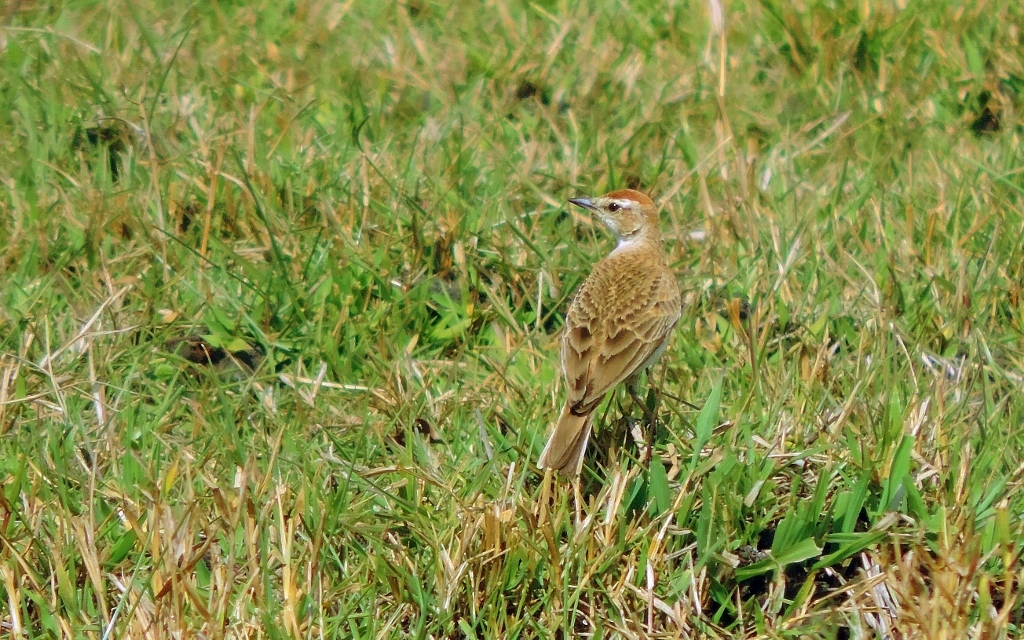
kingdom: Animalia
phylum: Chordata
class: Aves
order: Passeriformes
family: Alaudidae
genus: Calandrella
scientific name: Calandrella cinerea
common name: Red-capped lark
